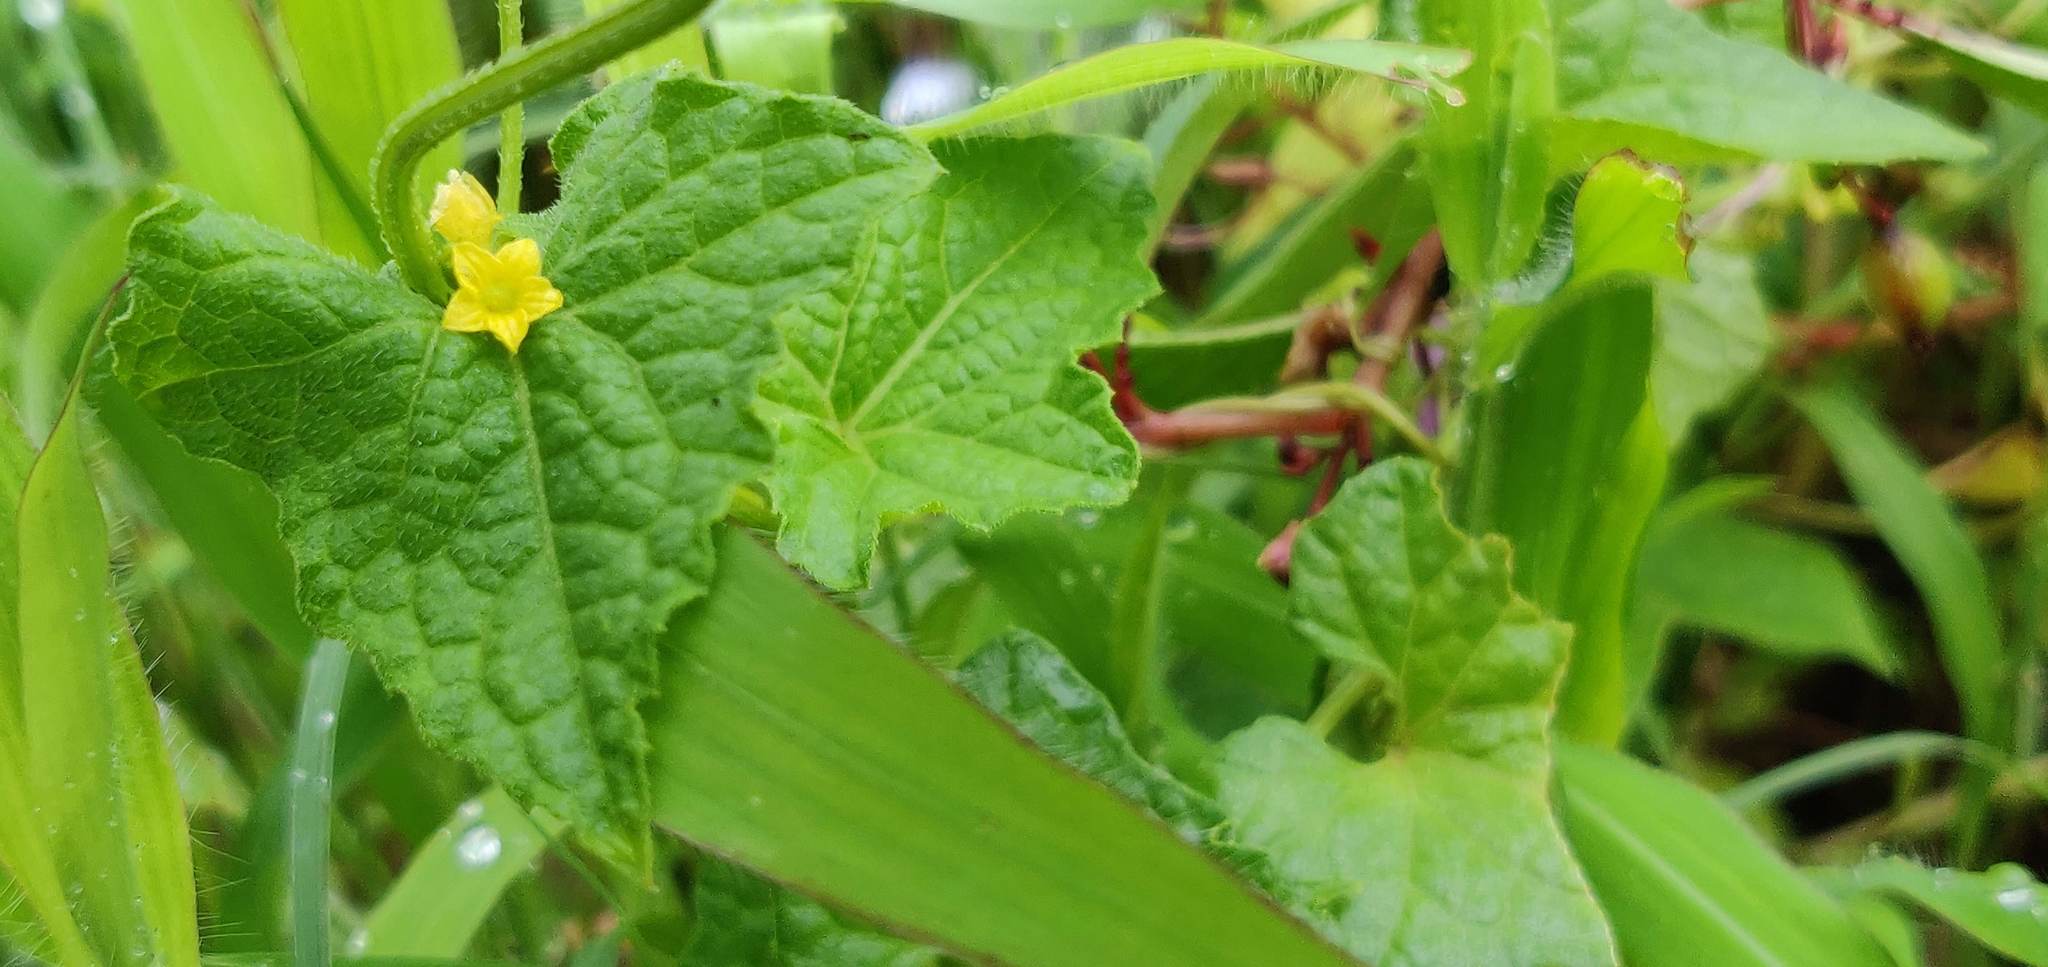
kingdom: Plantae
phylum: Tracheophyta
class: Magnoliopsida
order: Cucurbitales
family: Cucurbitaceae
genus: Cucumis
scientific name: Cucumis maderaspatanus
